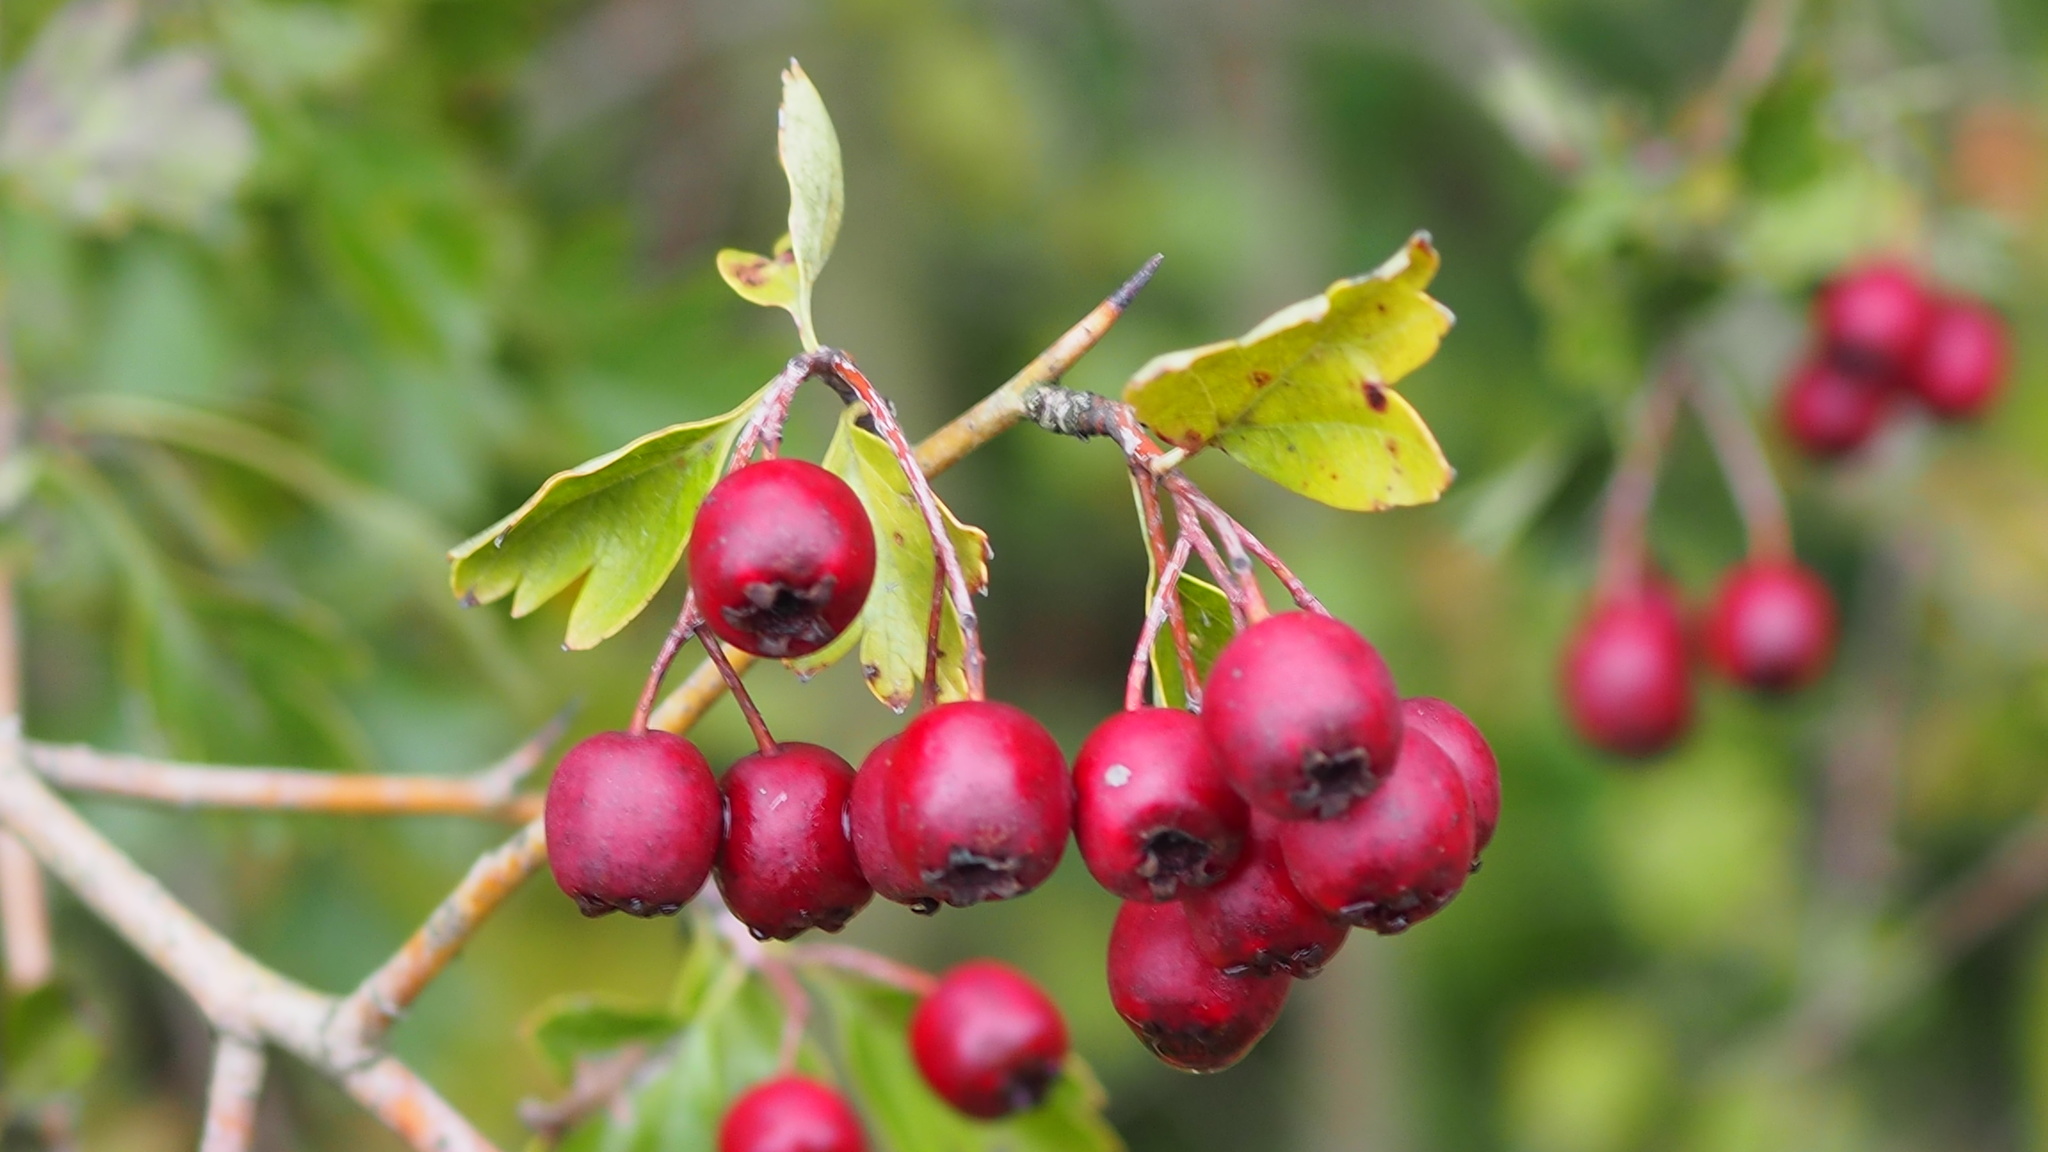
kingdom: Plantae
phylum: Tracheophyta
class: Magnoliopsida
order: Rosales
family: Rosaceae
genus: Crataegus
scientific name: Crataegus monogyna
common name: Hawthorn
